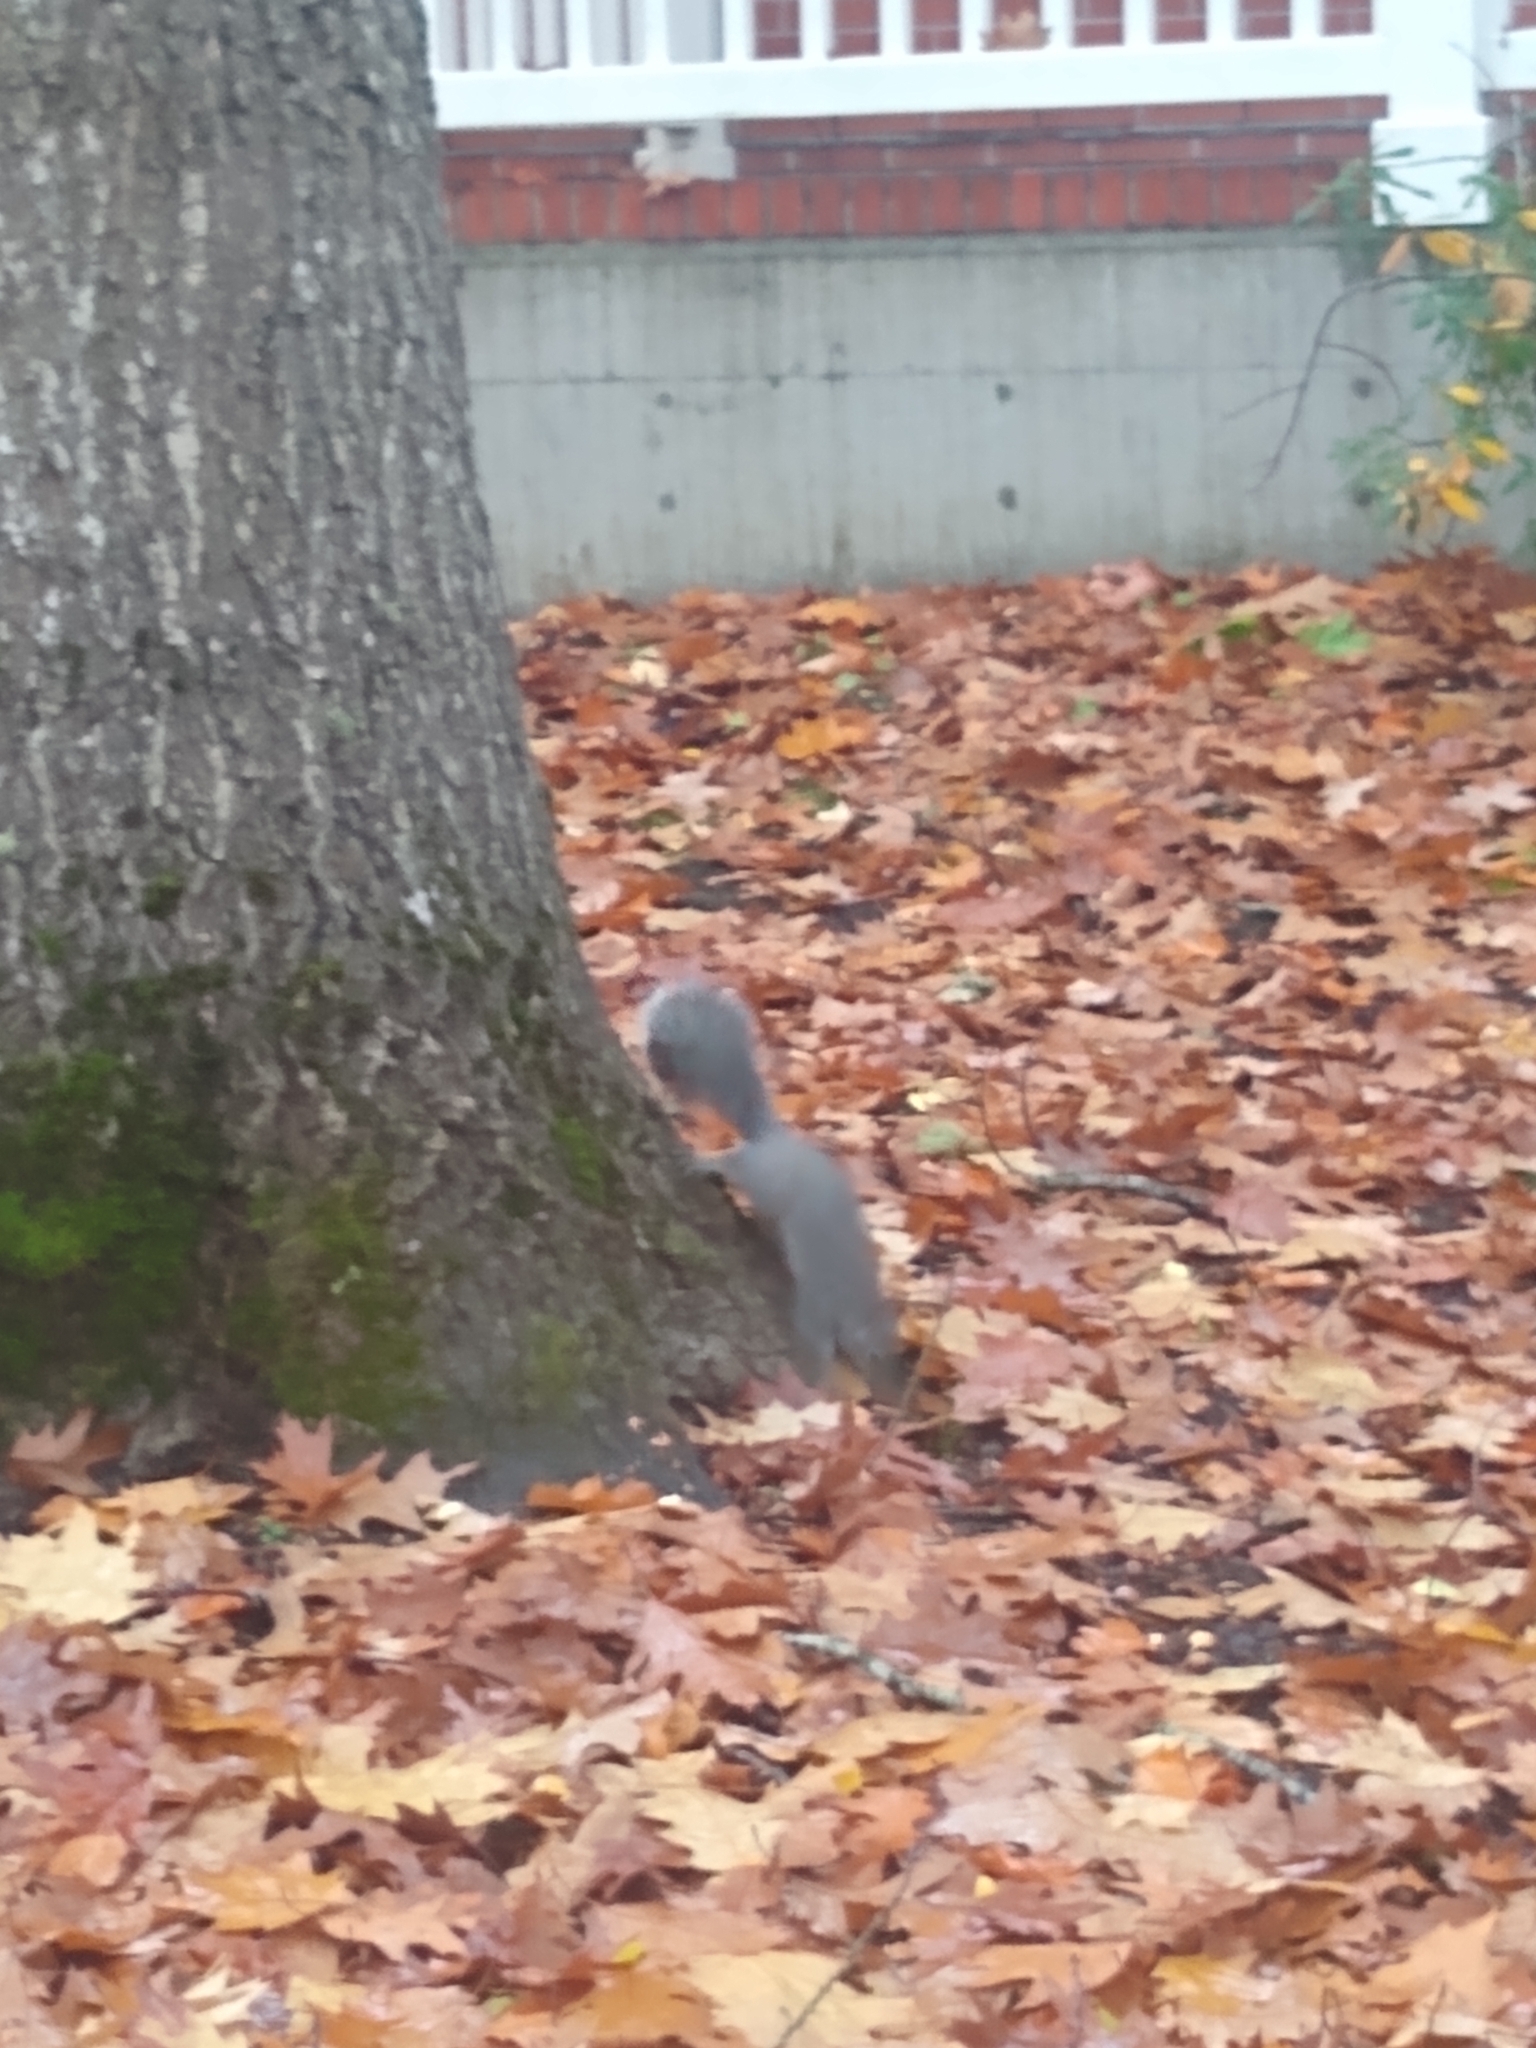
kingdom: Animalia
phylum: Chordata
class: Mammalia
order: Rodentia
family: Sciuridae
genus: Sciurus
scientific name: Sciurus griseus
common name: Western gray squirrel
